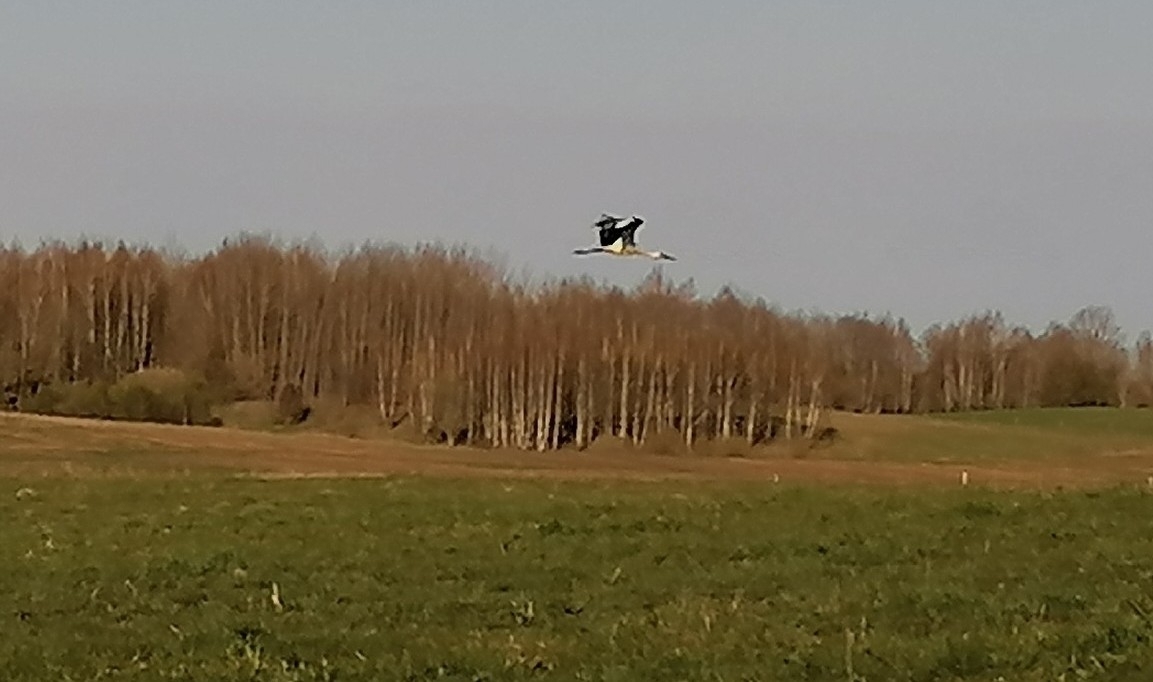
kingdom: Animalia
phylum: Chordata
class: Aves
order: Ciconiiformes
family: Ciconiidae
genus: Ciconia
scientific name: Ciconia ciconia
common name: White stork
